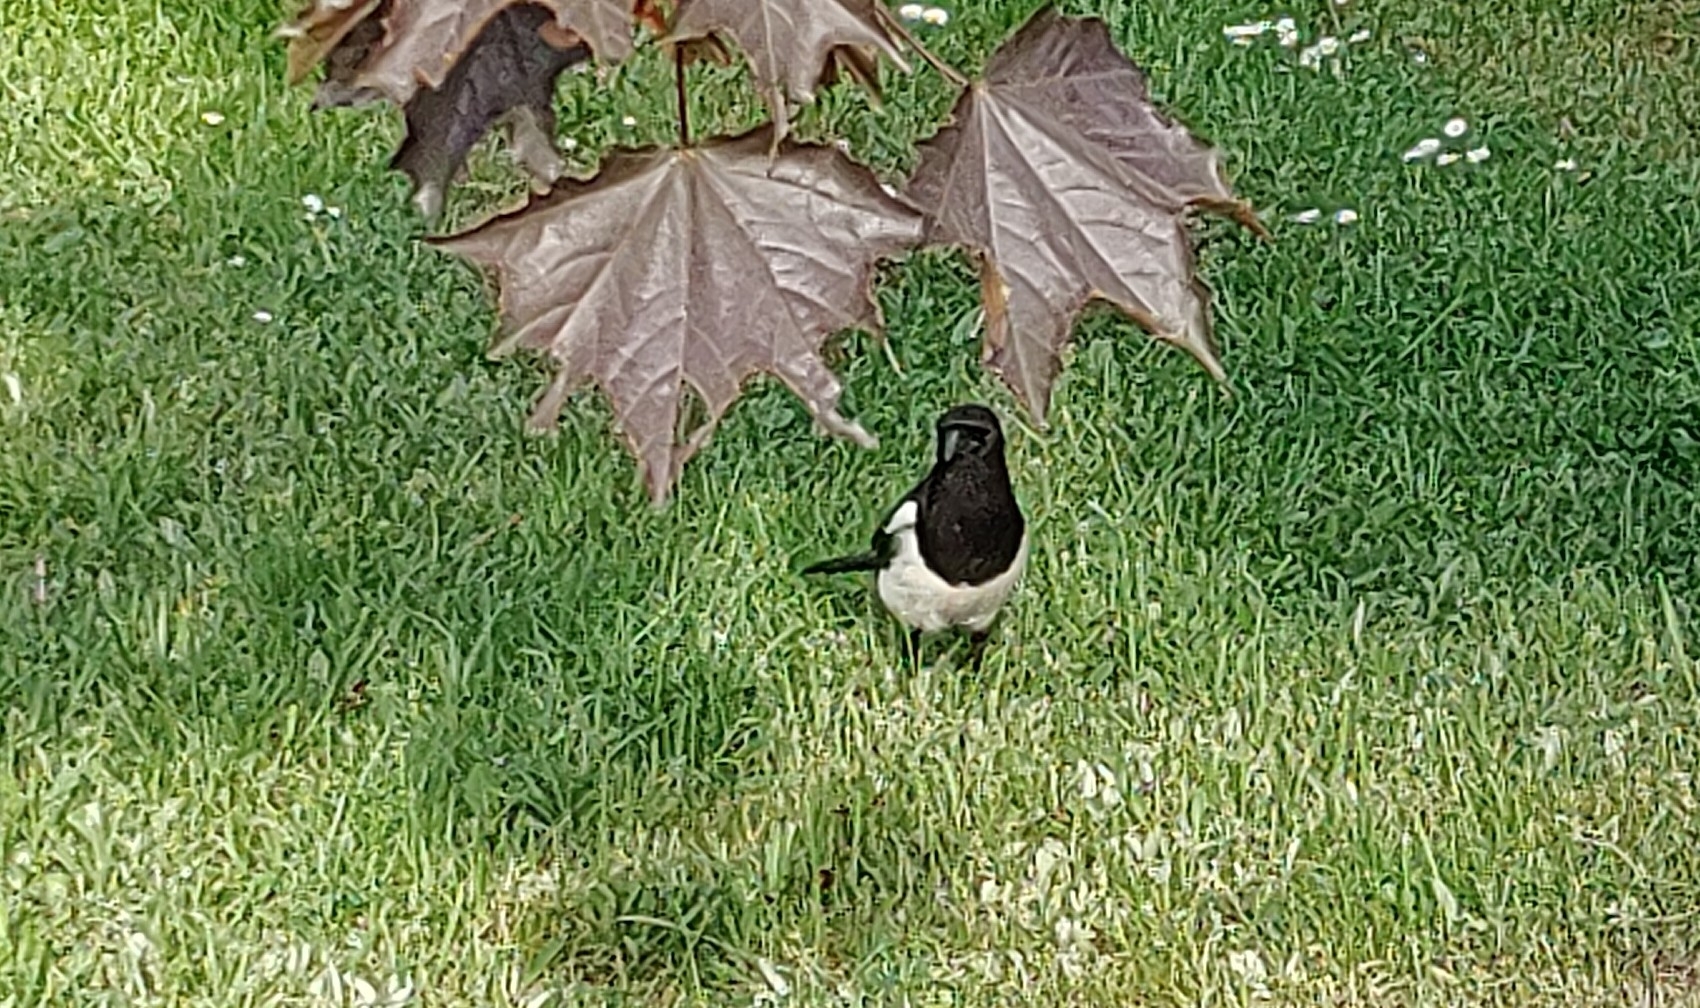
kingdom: Animalia
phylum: Chordata
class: Aves
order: Passeriformes
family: Corvidae
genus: Pica
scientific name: Pica pica
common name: Eurasian magpie
